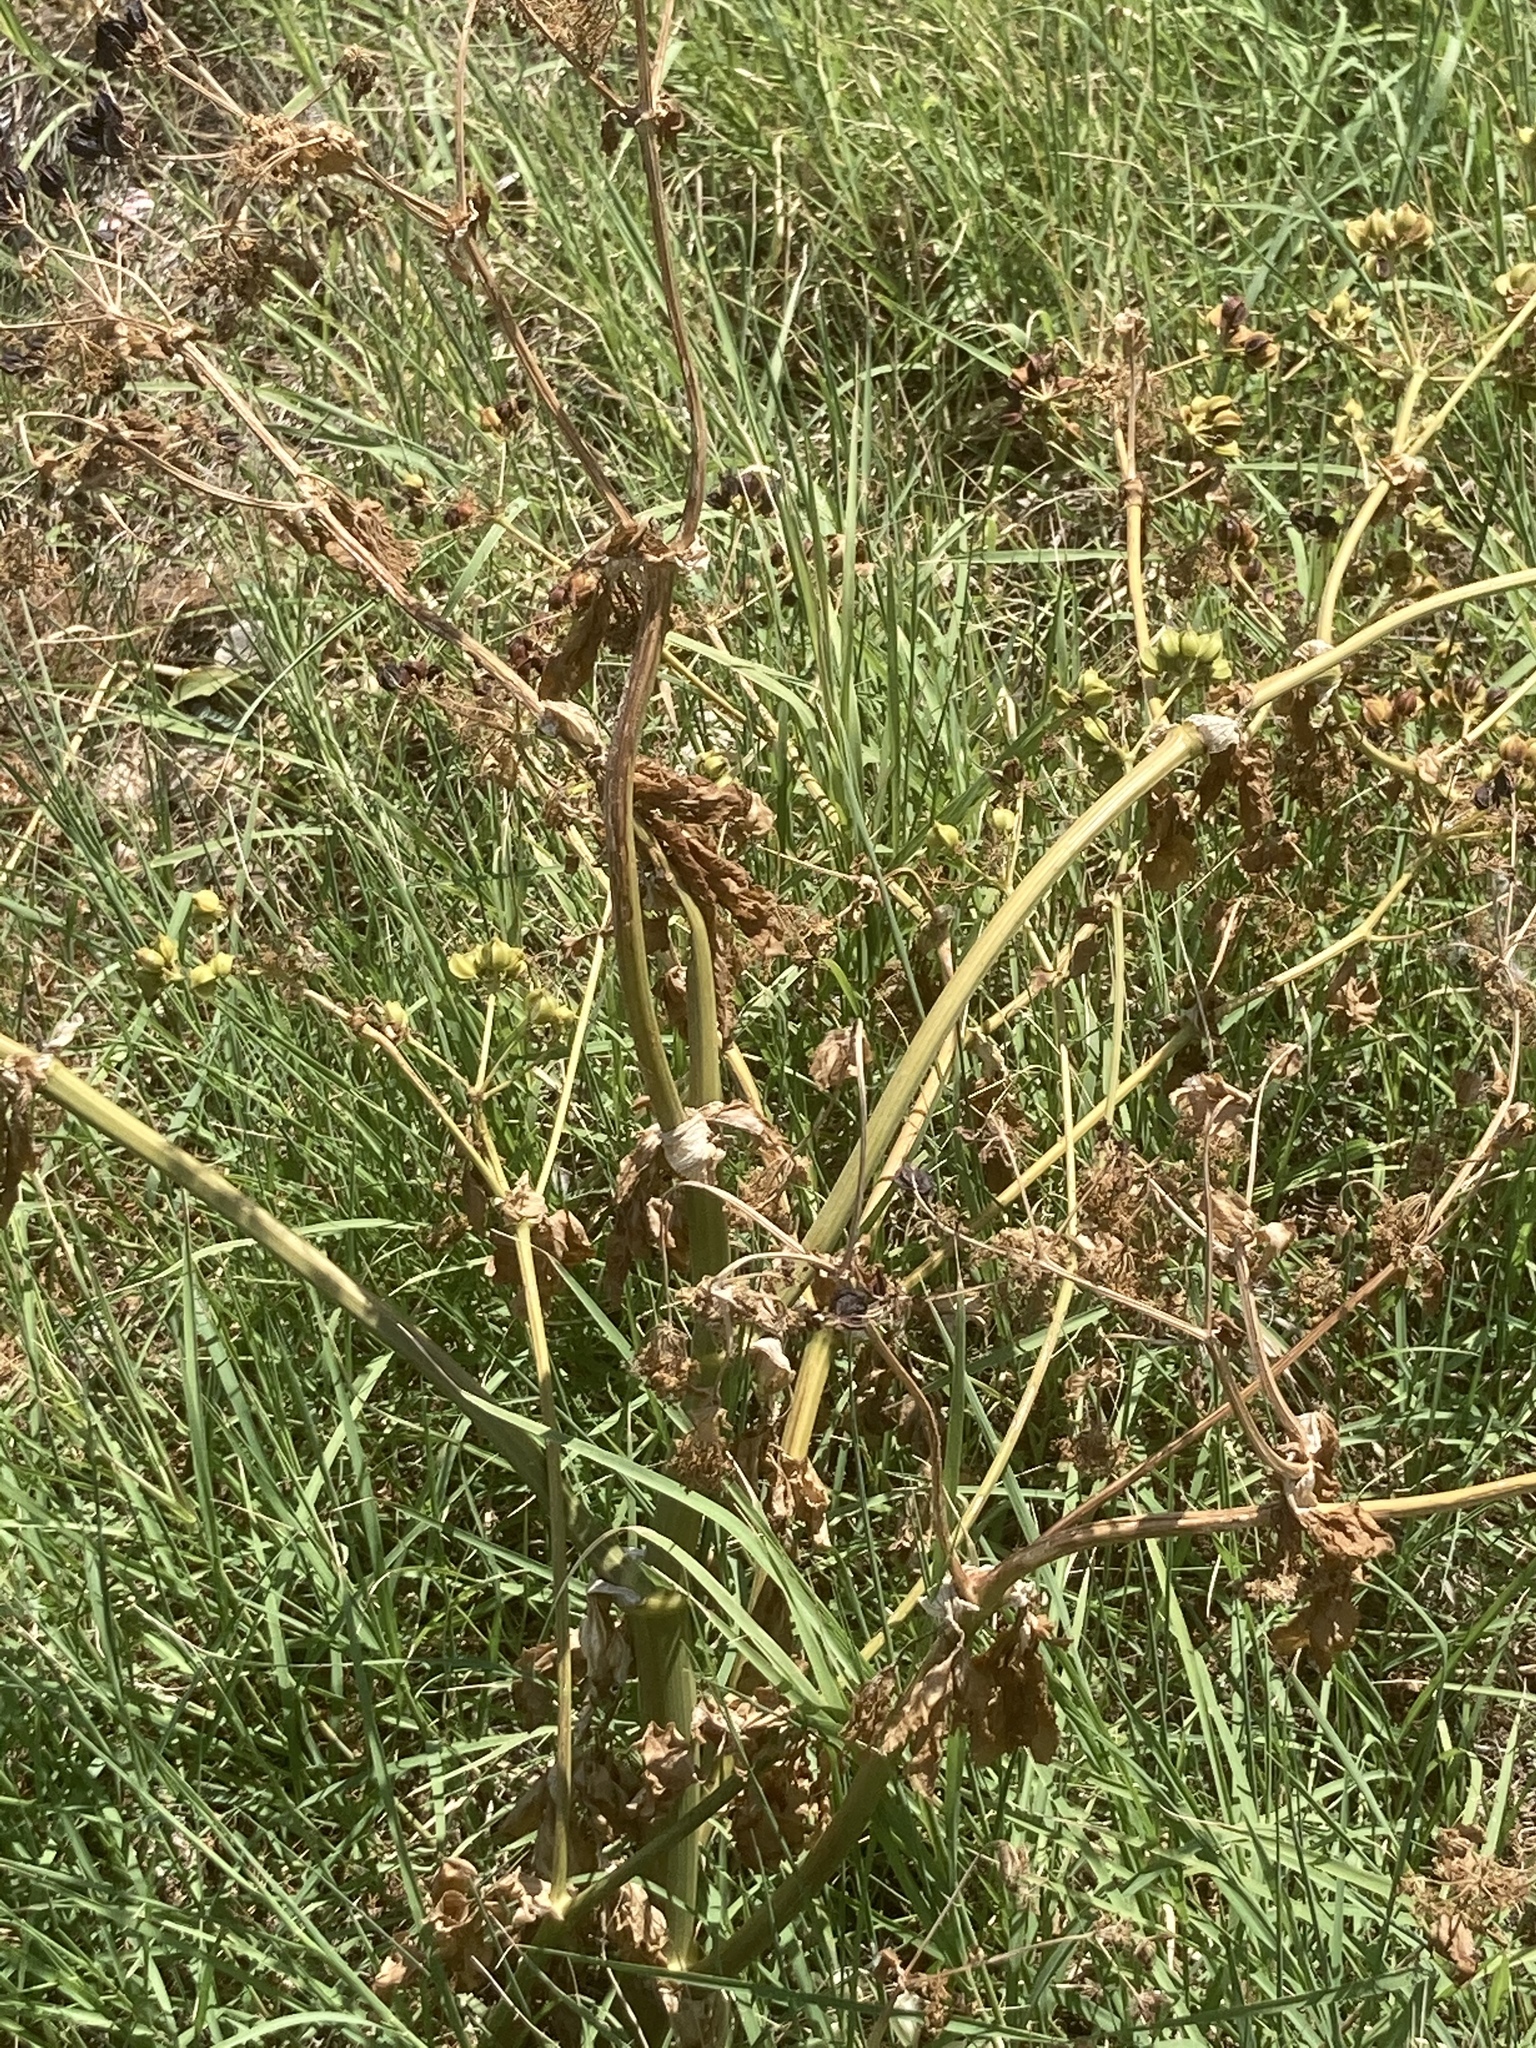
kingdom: Plantae
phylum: Tracheophyta
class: Magnoliopsida
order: Apiales
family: Apiaceae
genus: Smyrnium
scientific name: Smyrnium olusatrum
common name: Alexanders
